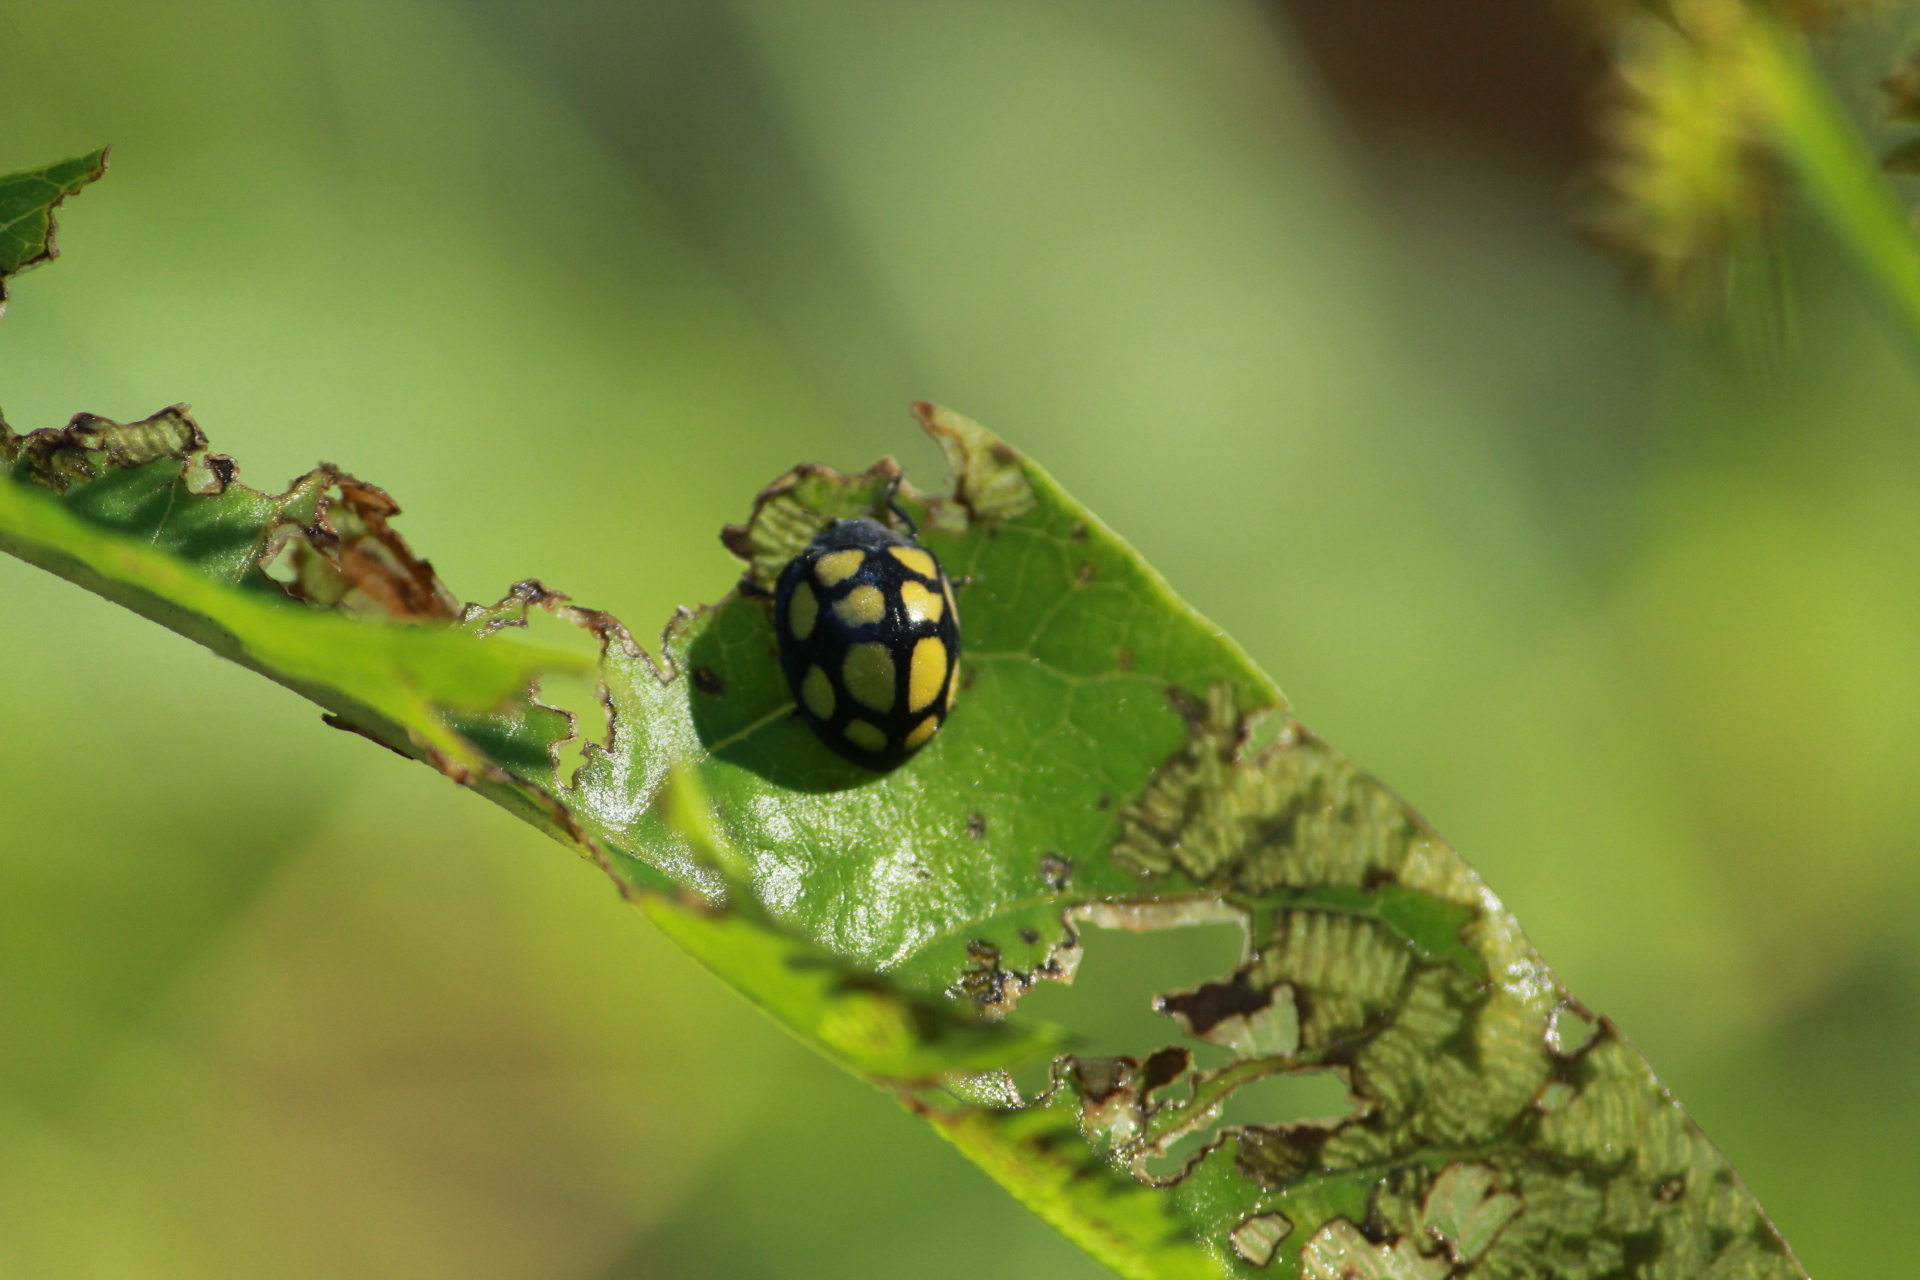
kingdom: Animalia
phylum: Arthropoda
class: Insecta
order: Coleoptera
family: Coccinellidae
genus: Epilachna
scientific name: Epilachna
